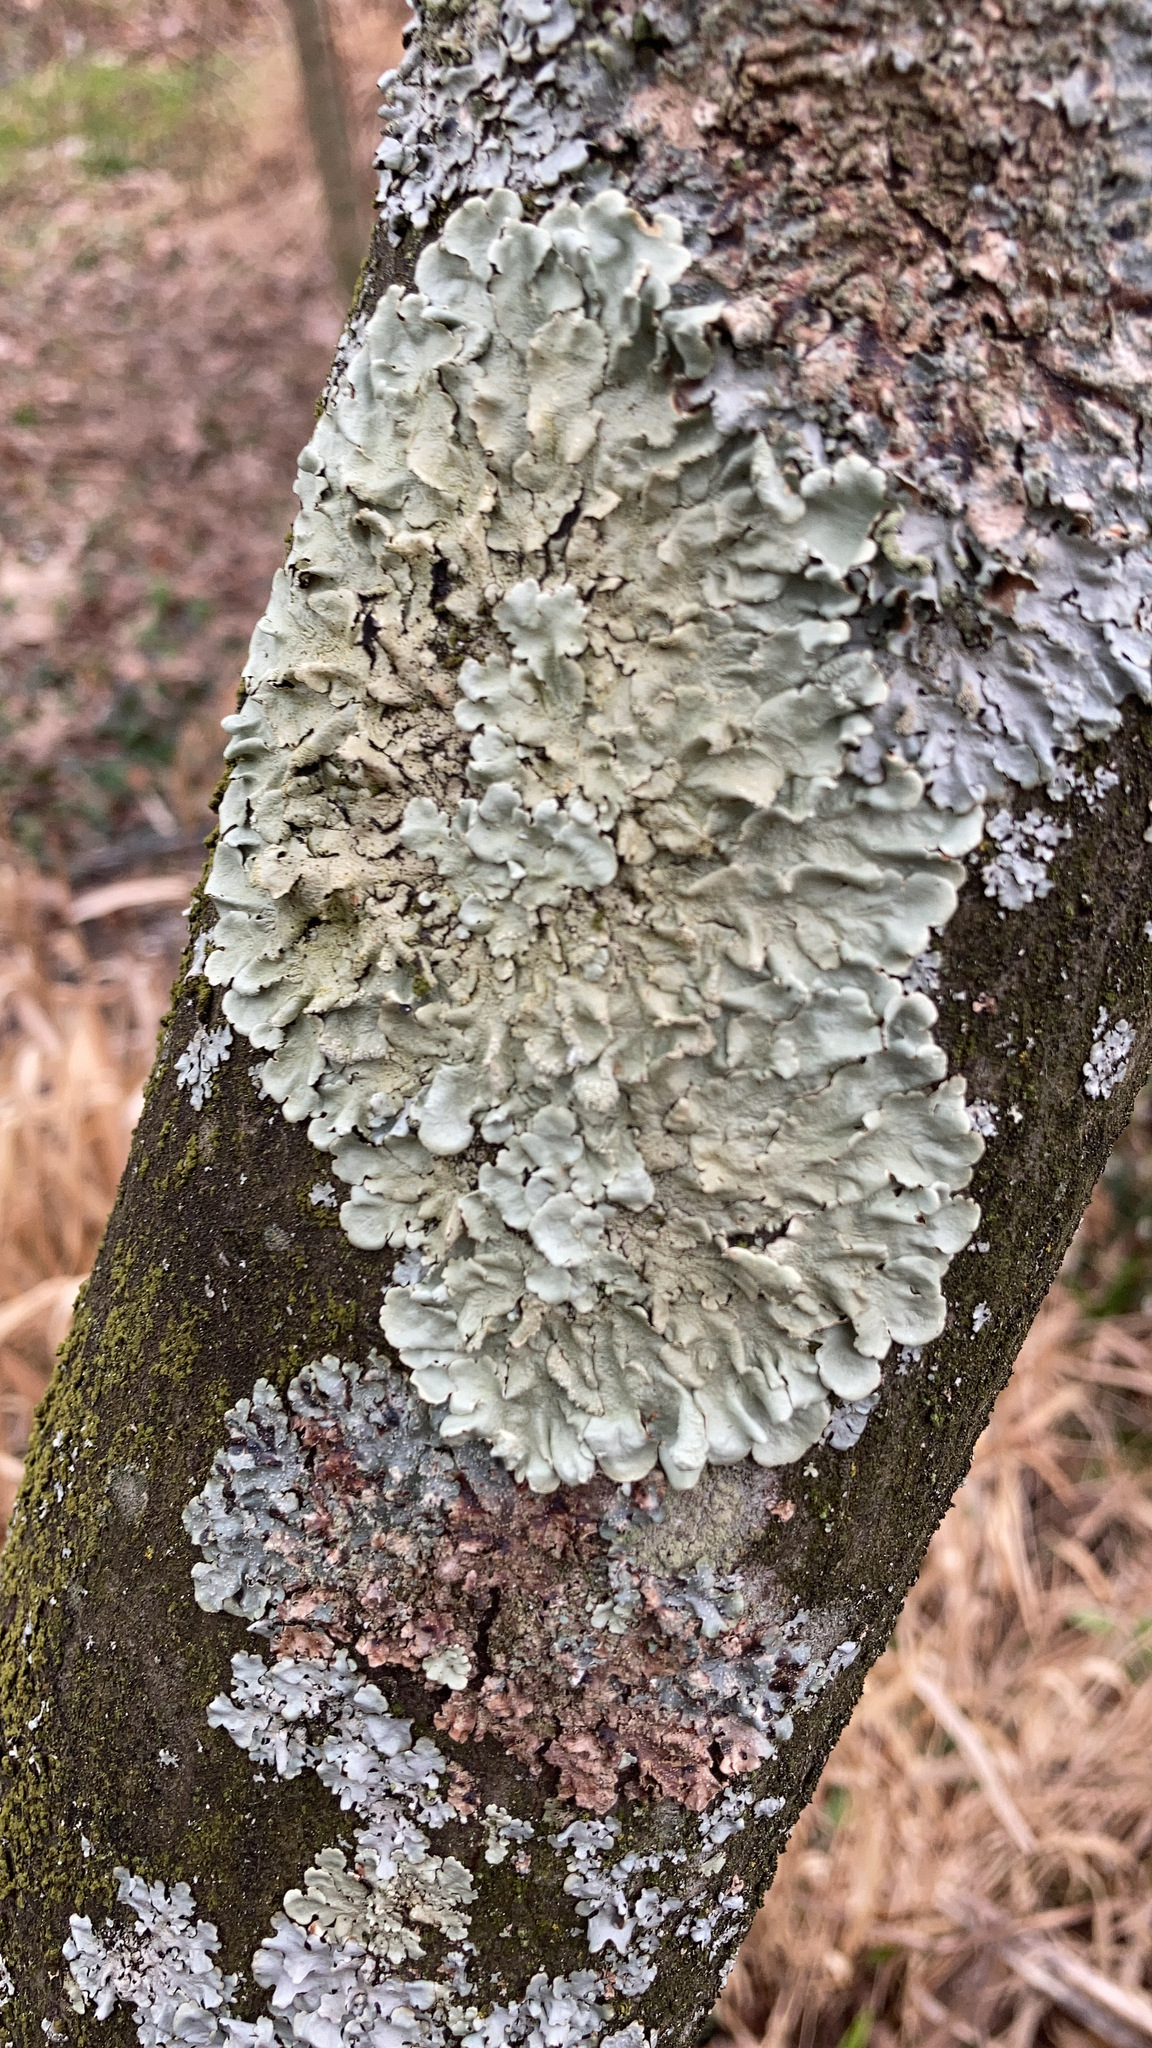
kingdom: Fungi
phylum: Ascomycota
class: Lecanoromycetes
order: Lecanorales
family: Parmeliaceae
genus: Flavoparmelia
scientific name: Flavoparmelia caperata
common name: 40-mile per hour lichen
